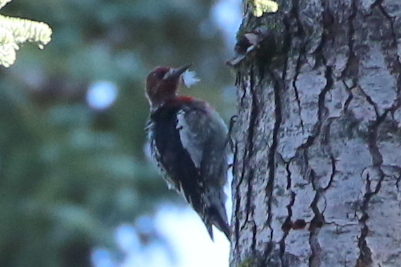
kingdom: Animalia
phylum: Chordata
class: Aves
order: Piciformes
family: Picidae
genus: Sphyrapicus
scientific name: Sphyrapicus ruber
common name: Red-breasted sapsucker
